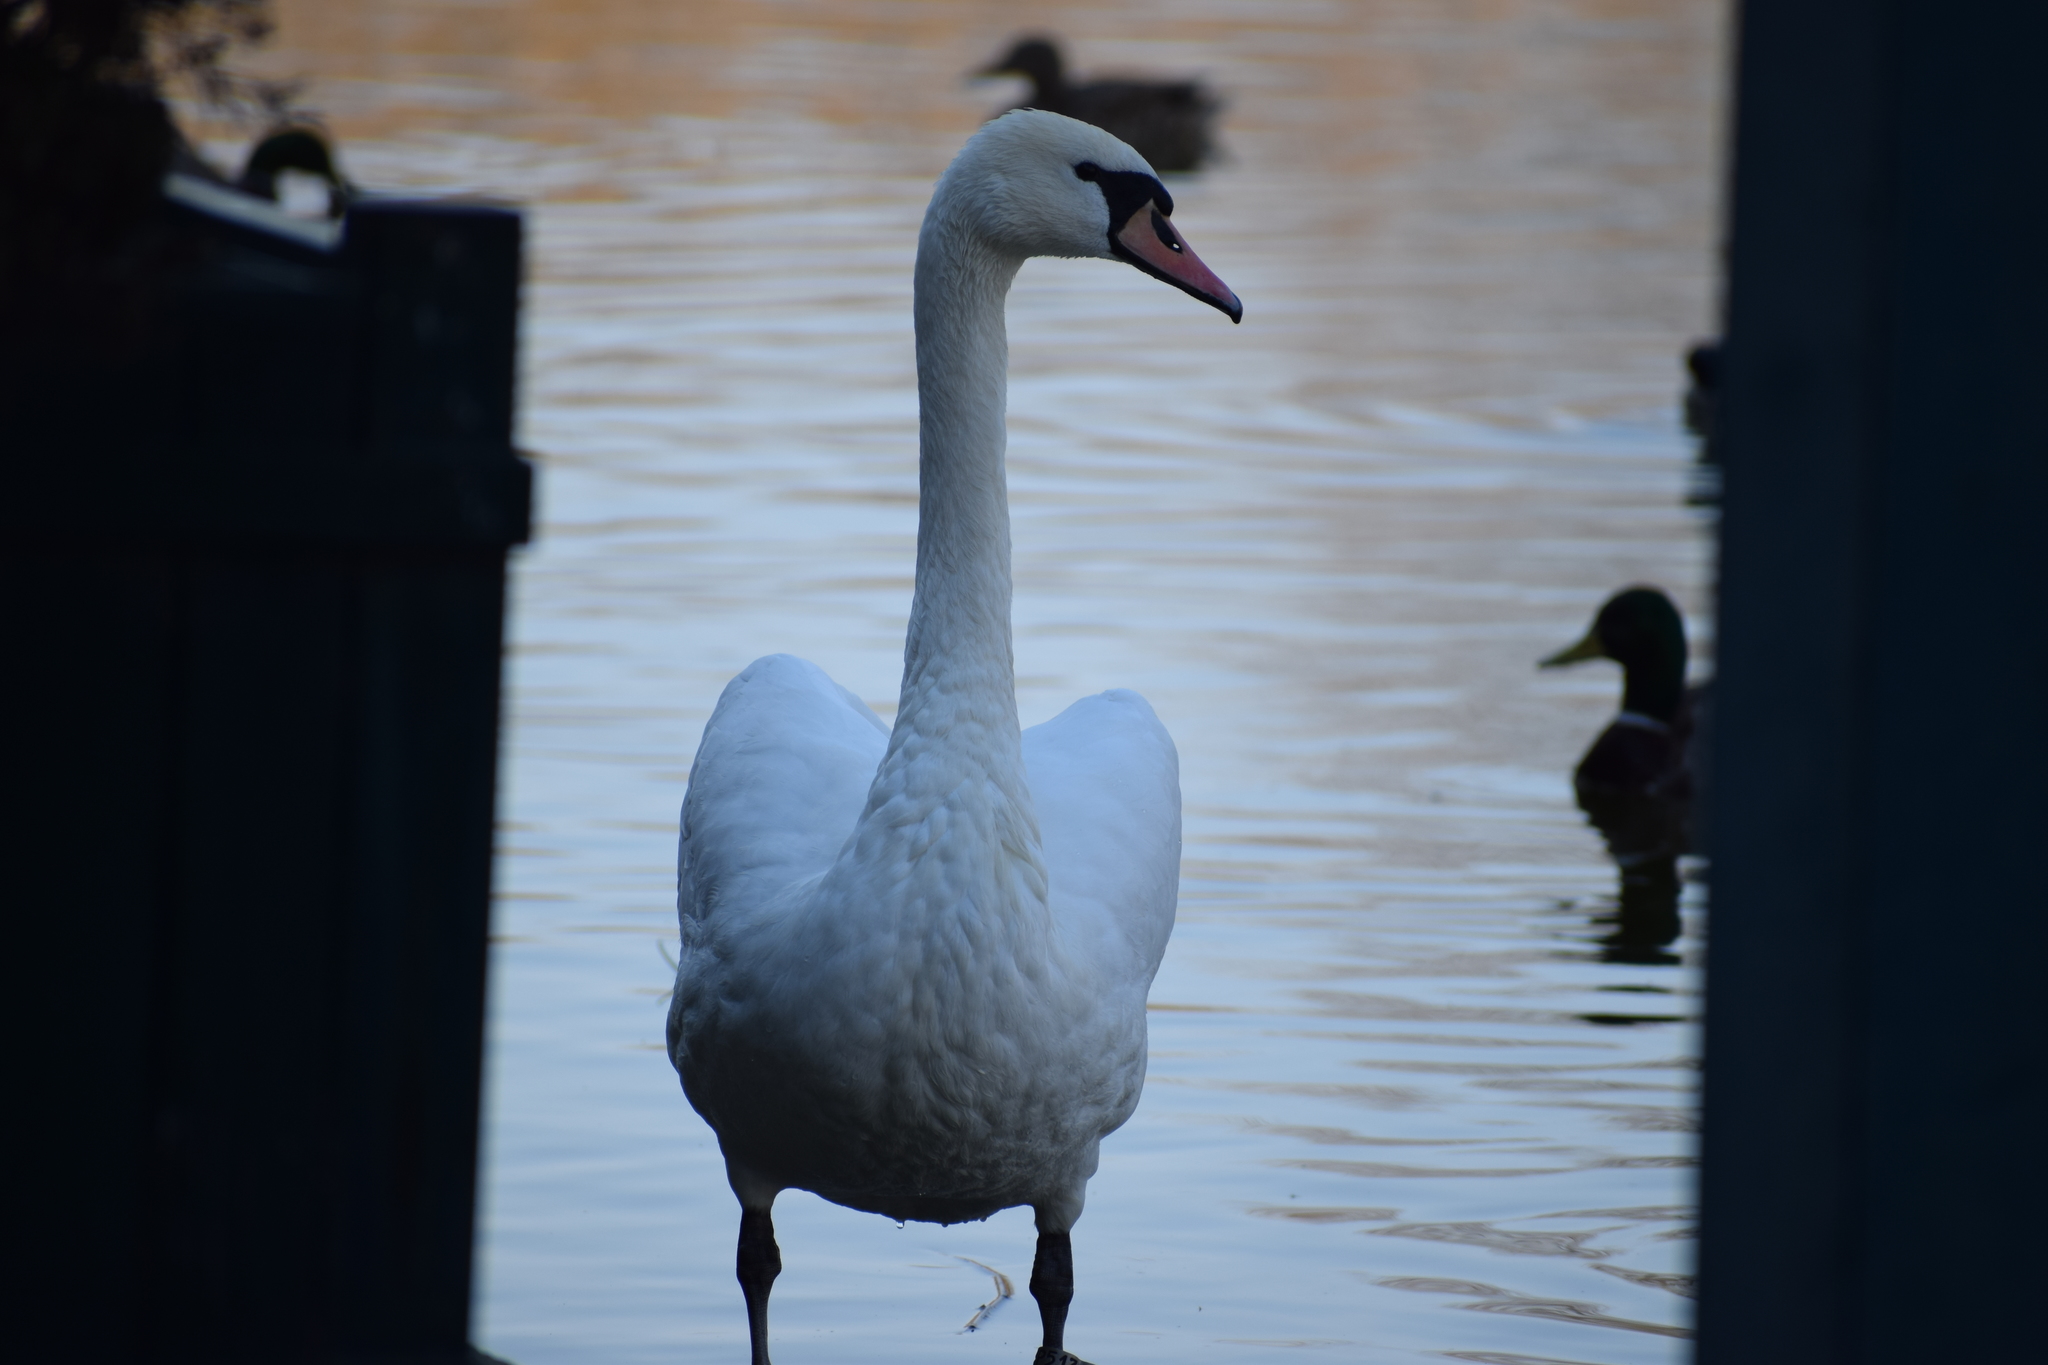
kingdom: Animalia
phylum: Chordata
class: Aves
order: Anseriformes
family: Anatidae
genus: Cygnus
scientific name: Cygnus olor
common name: Mute swan
